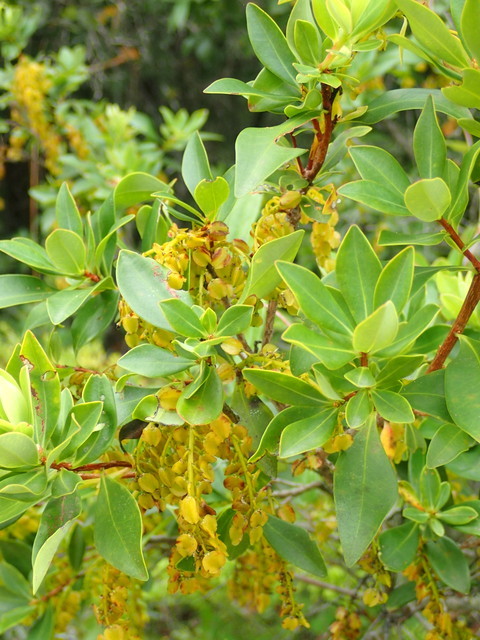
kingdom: Plantae
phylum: Tracheophyta
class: Magnoliopsida
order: Ericales
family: Cyrillaceae
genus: Cliftonia
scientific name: Cliftonia monophylla
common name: Titi
